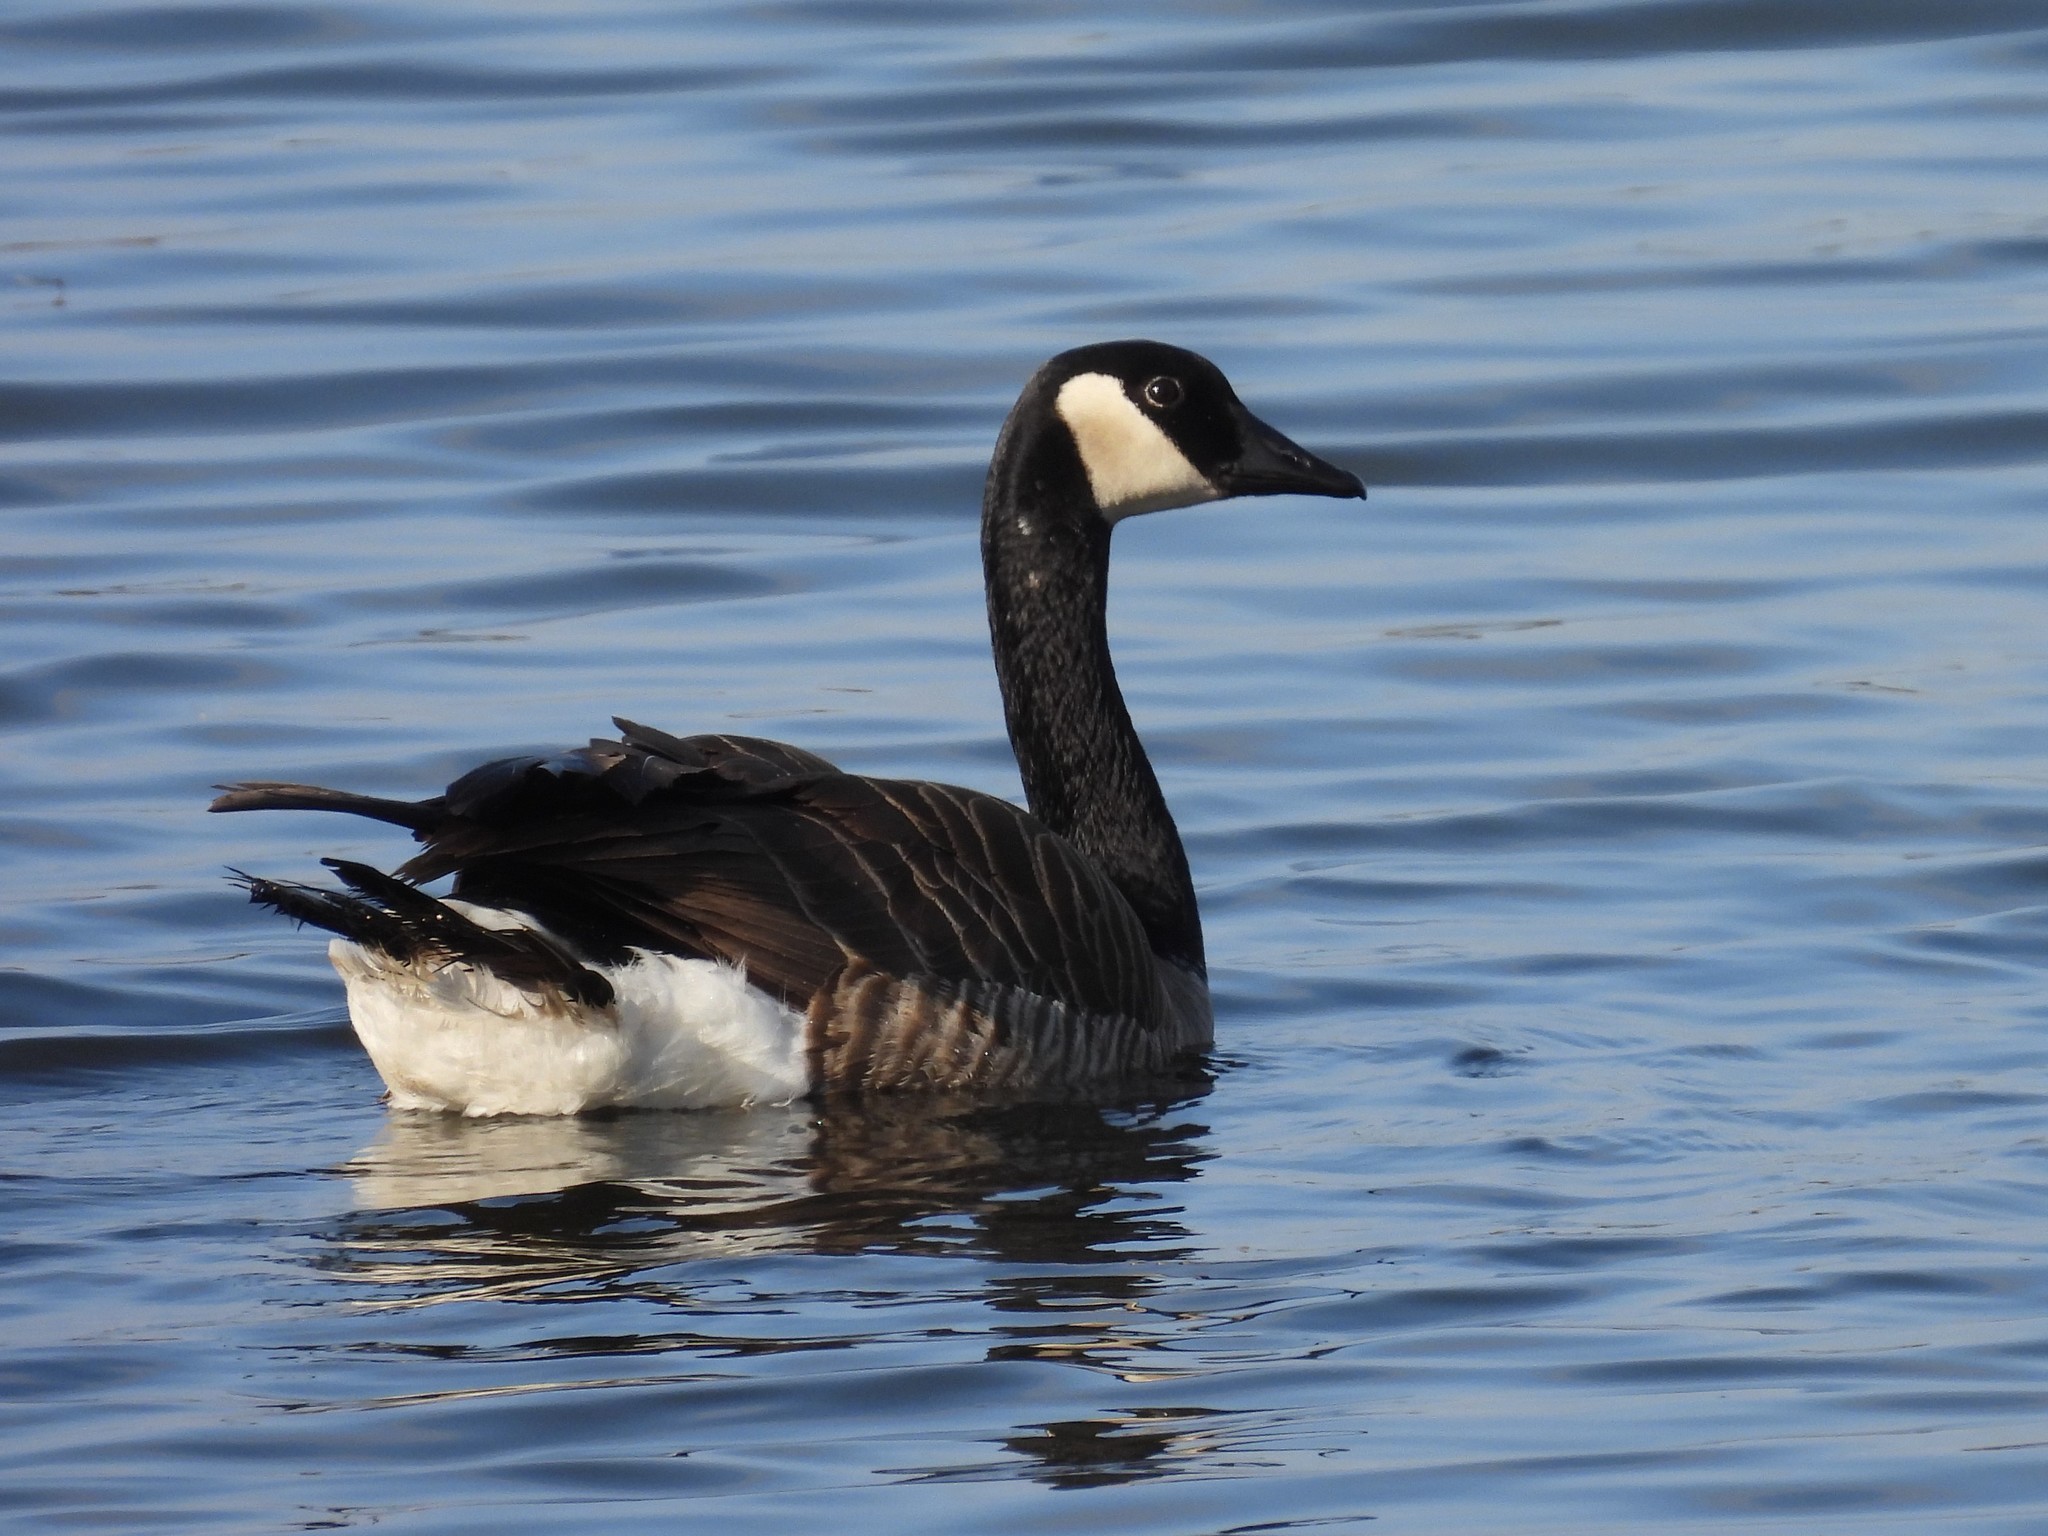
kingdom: Animalia
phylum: Chordata
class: Aves
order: Anseriformes
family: Anatidae
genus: Branta
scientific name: Branta canadensis
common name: Canada goose
